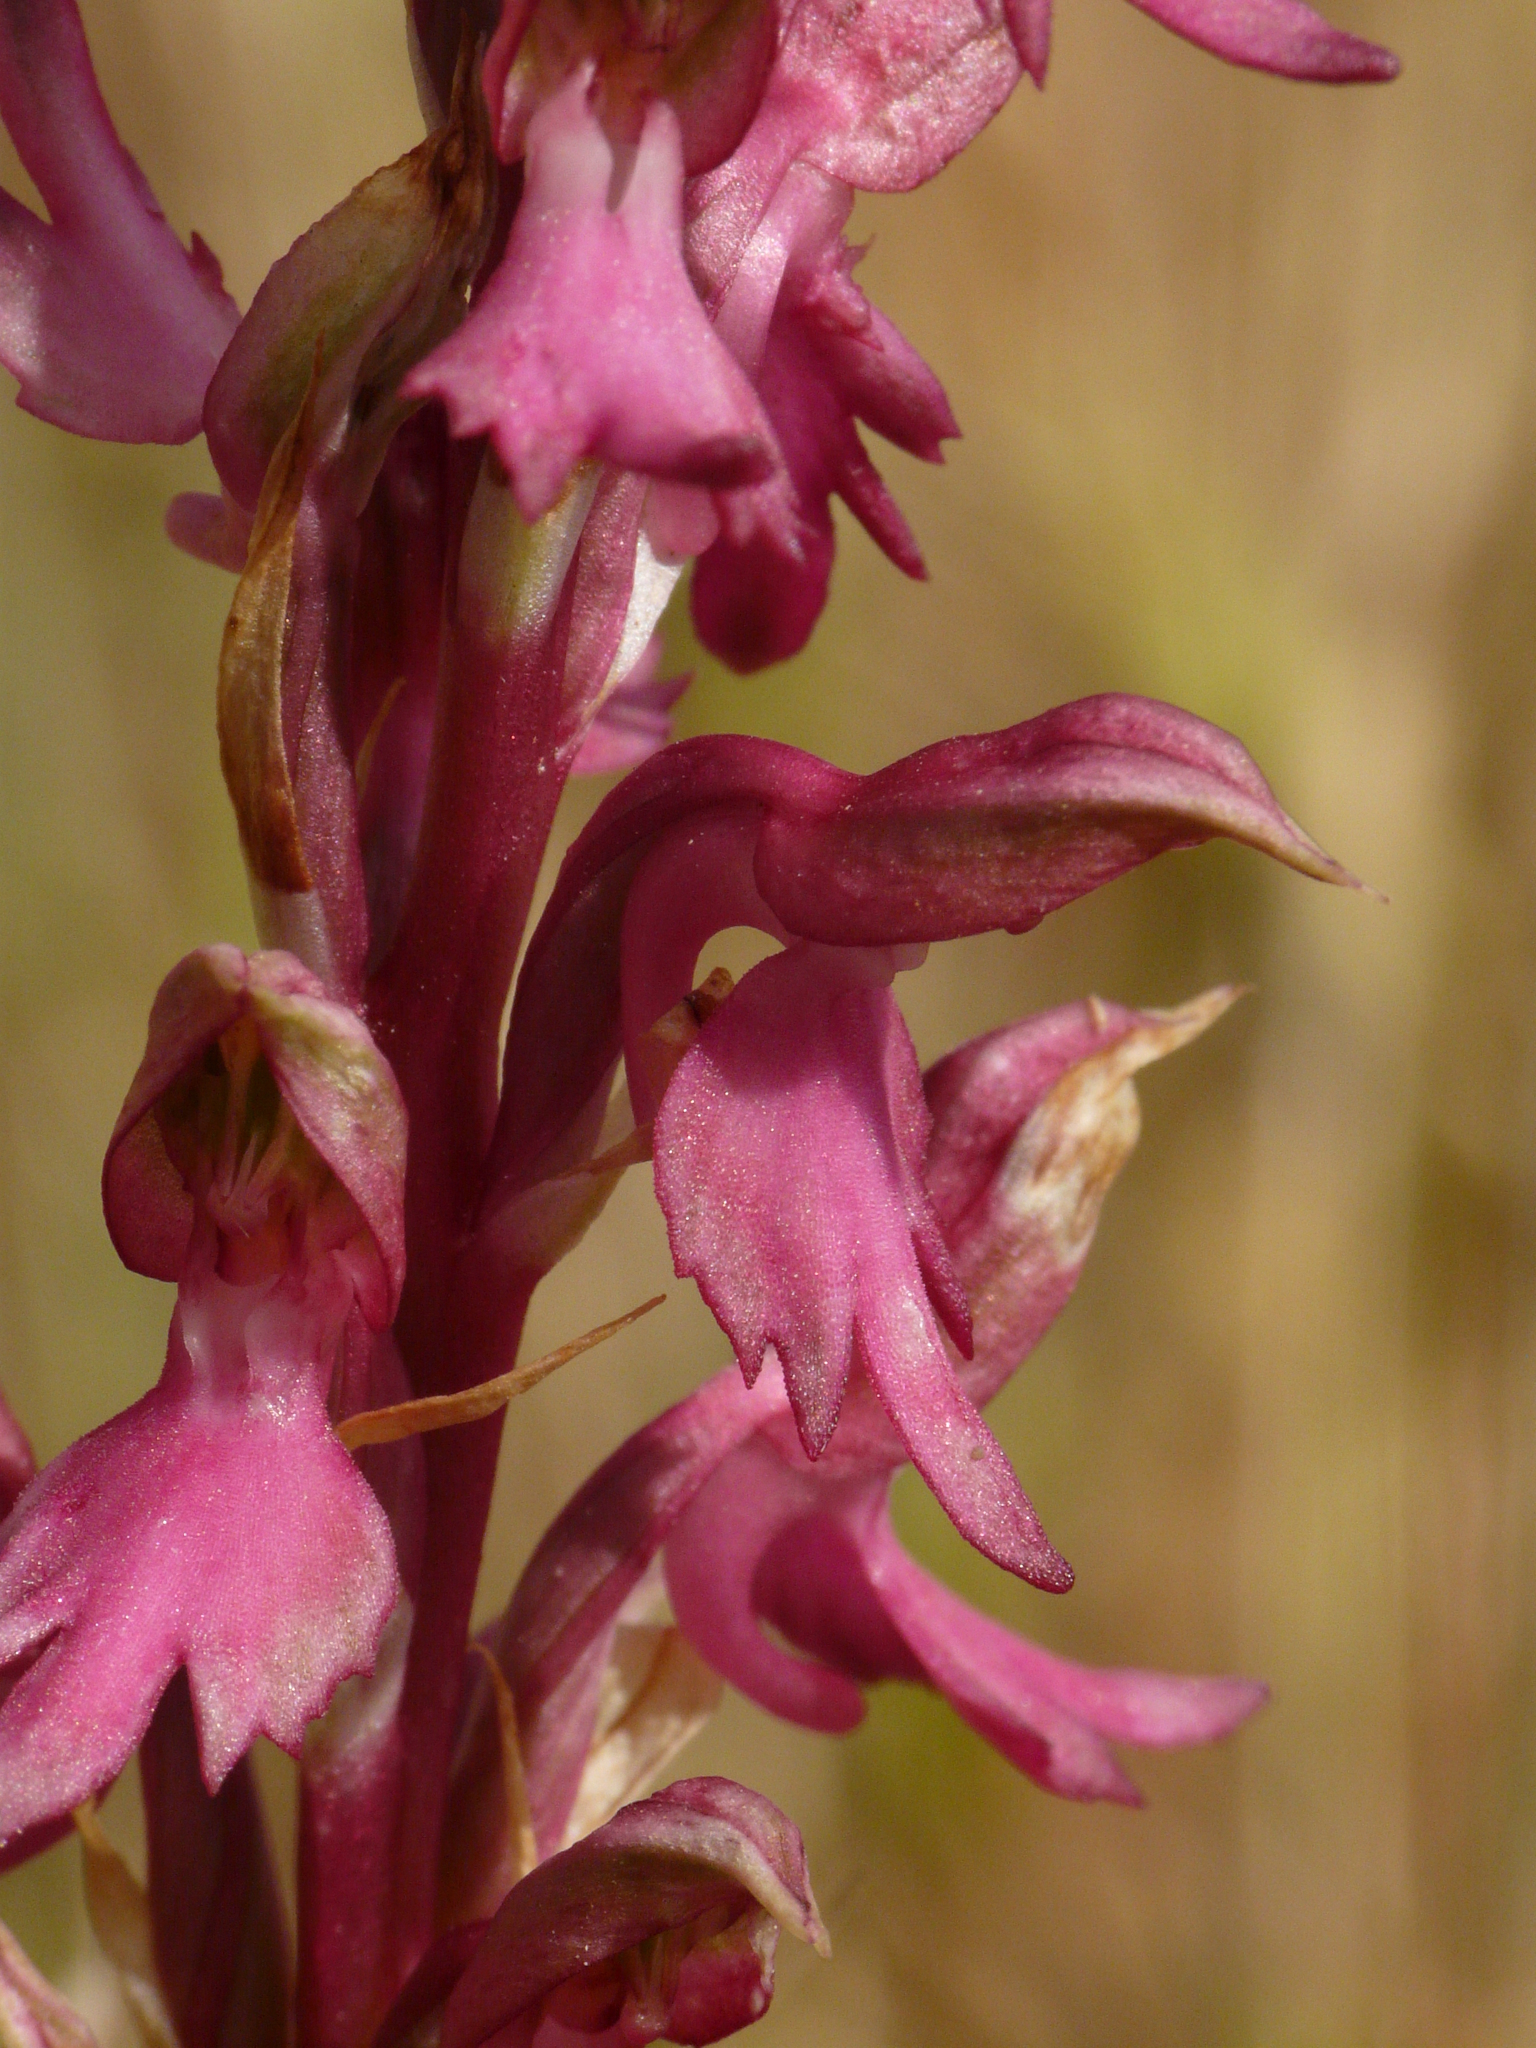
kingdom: Plantae
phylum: Tracheophyta
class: Liliopsida
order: Asparagales
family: Orchidaceae
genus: Anacamptis
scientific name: Anacamptis sancta
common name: Holy orchid
